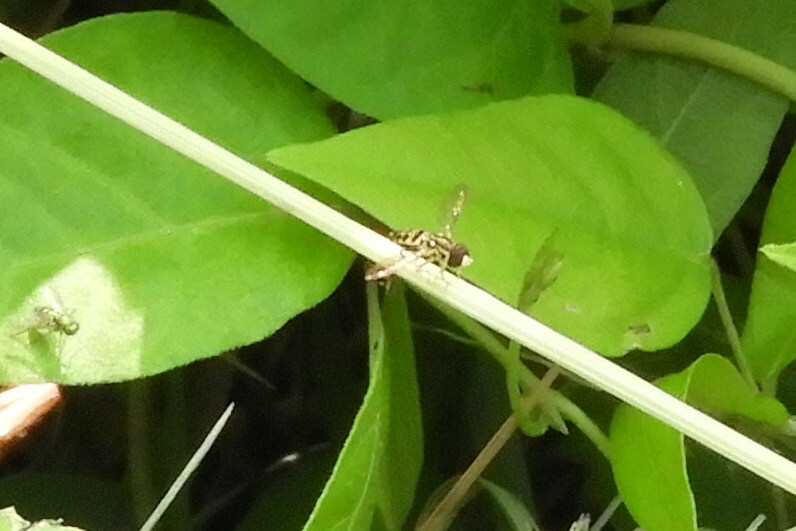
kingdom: Animalia
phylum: Arthropoda
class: Insecta
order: Diptera
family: Syrphidae
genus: Toxomerus
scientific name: Toxomerus geminatus
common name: Eastern calligrapher
